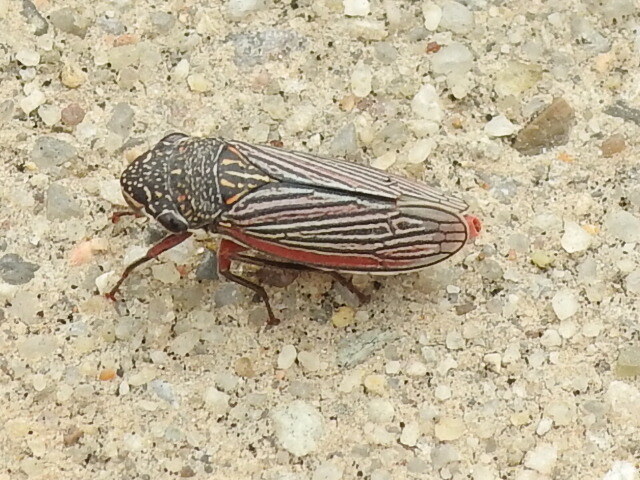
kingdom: Animalia
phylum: Arthropoda
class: Insecta
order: Hemiptera
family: Cicadellidae
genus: Cuerna
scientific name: Cuerna costalis
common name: Lateral-lined sharpshooter
